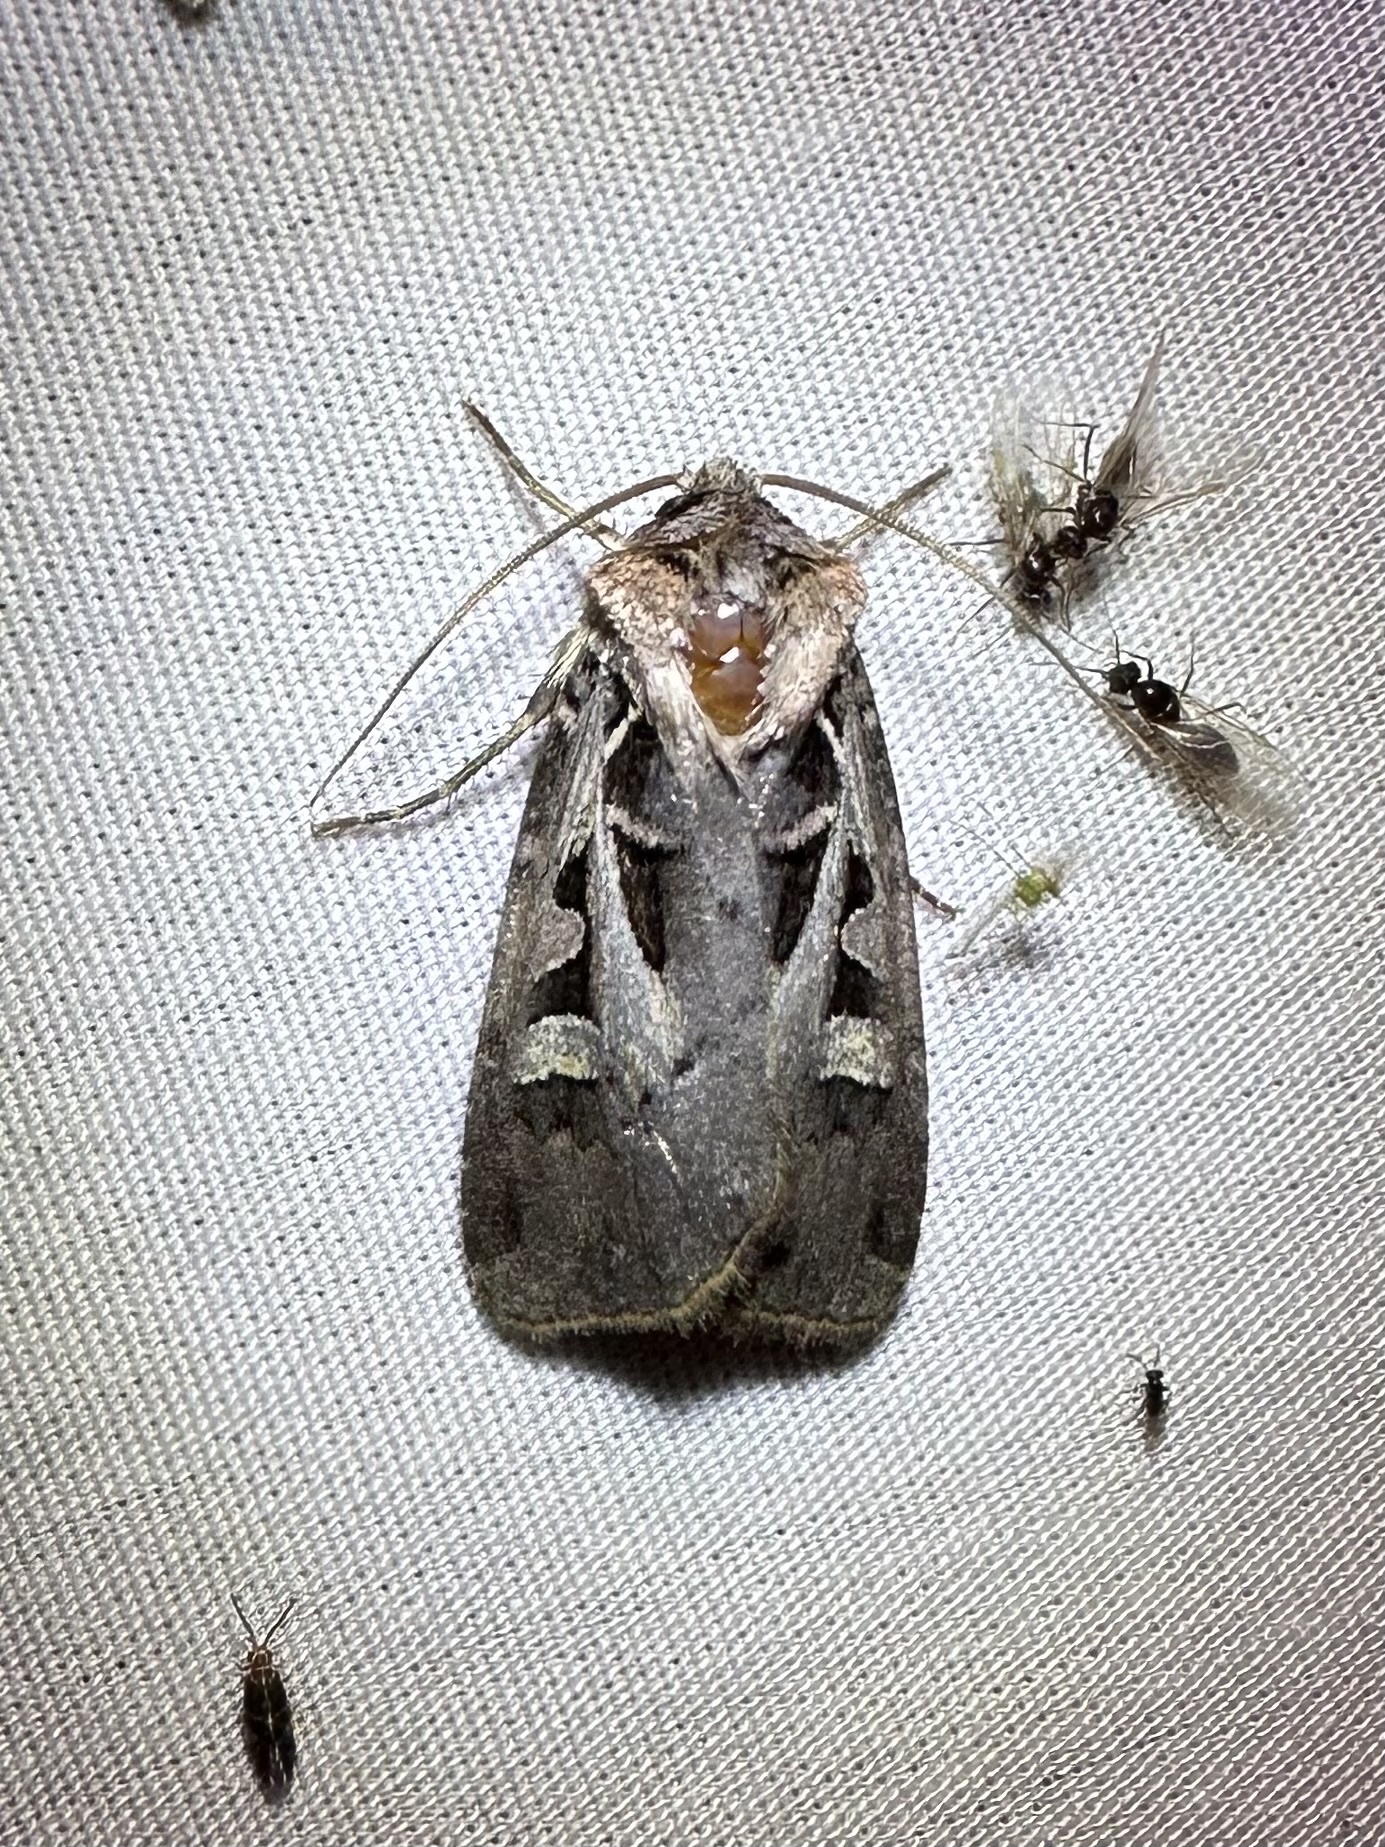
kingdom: Animalia
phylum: Arthropoda
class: Insecta
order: Lepidoptera
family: Noctuidae
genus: Feltia
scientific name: Feltia herilis
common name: Master's dart
